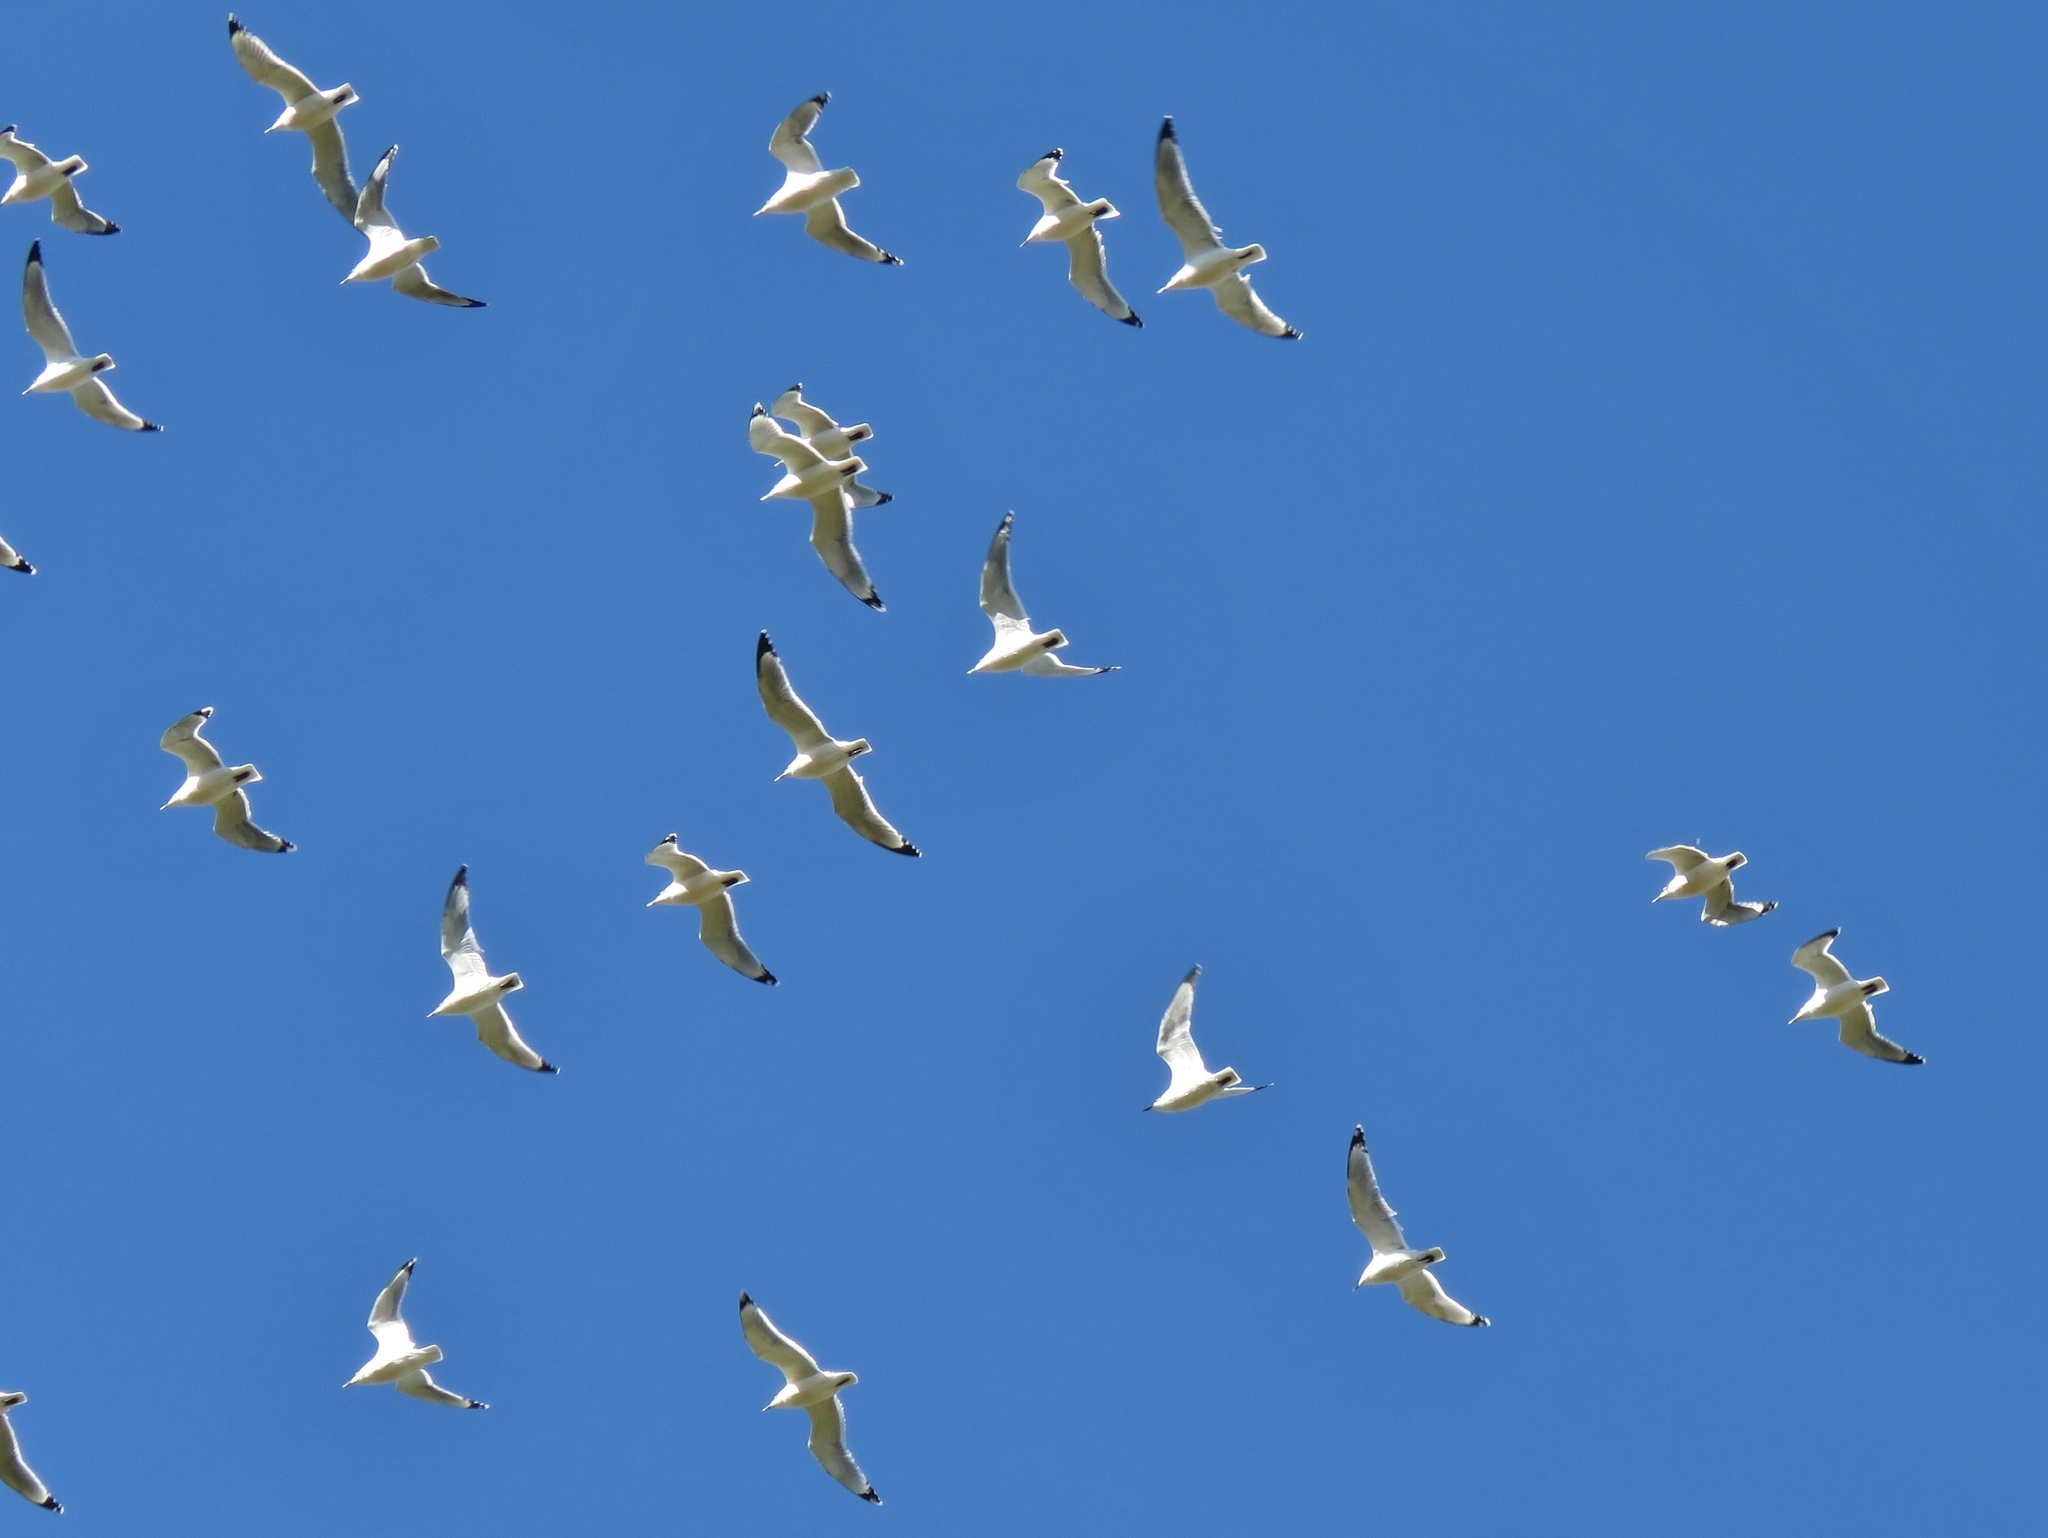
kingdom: Animalia
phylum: Chordata
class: Aves
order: Charadriiformes
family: Laridae
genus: Leucophaeus
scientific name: Leucophaeus pipixcan
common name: Franklin's gull
